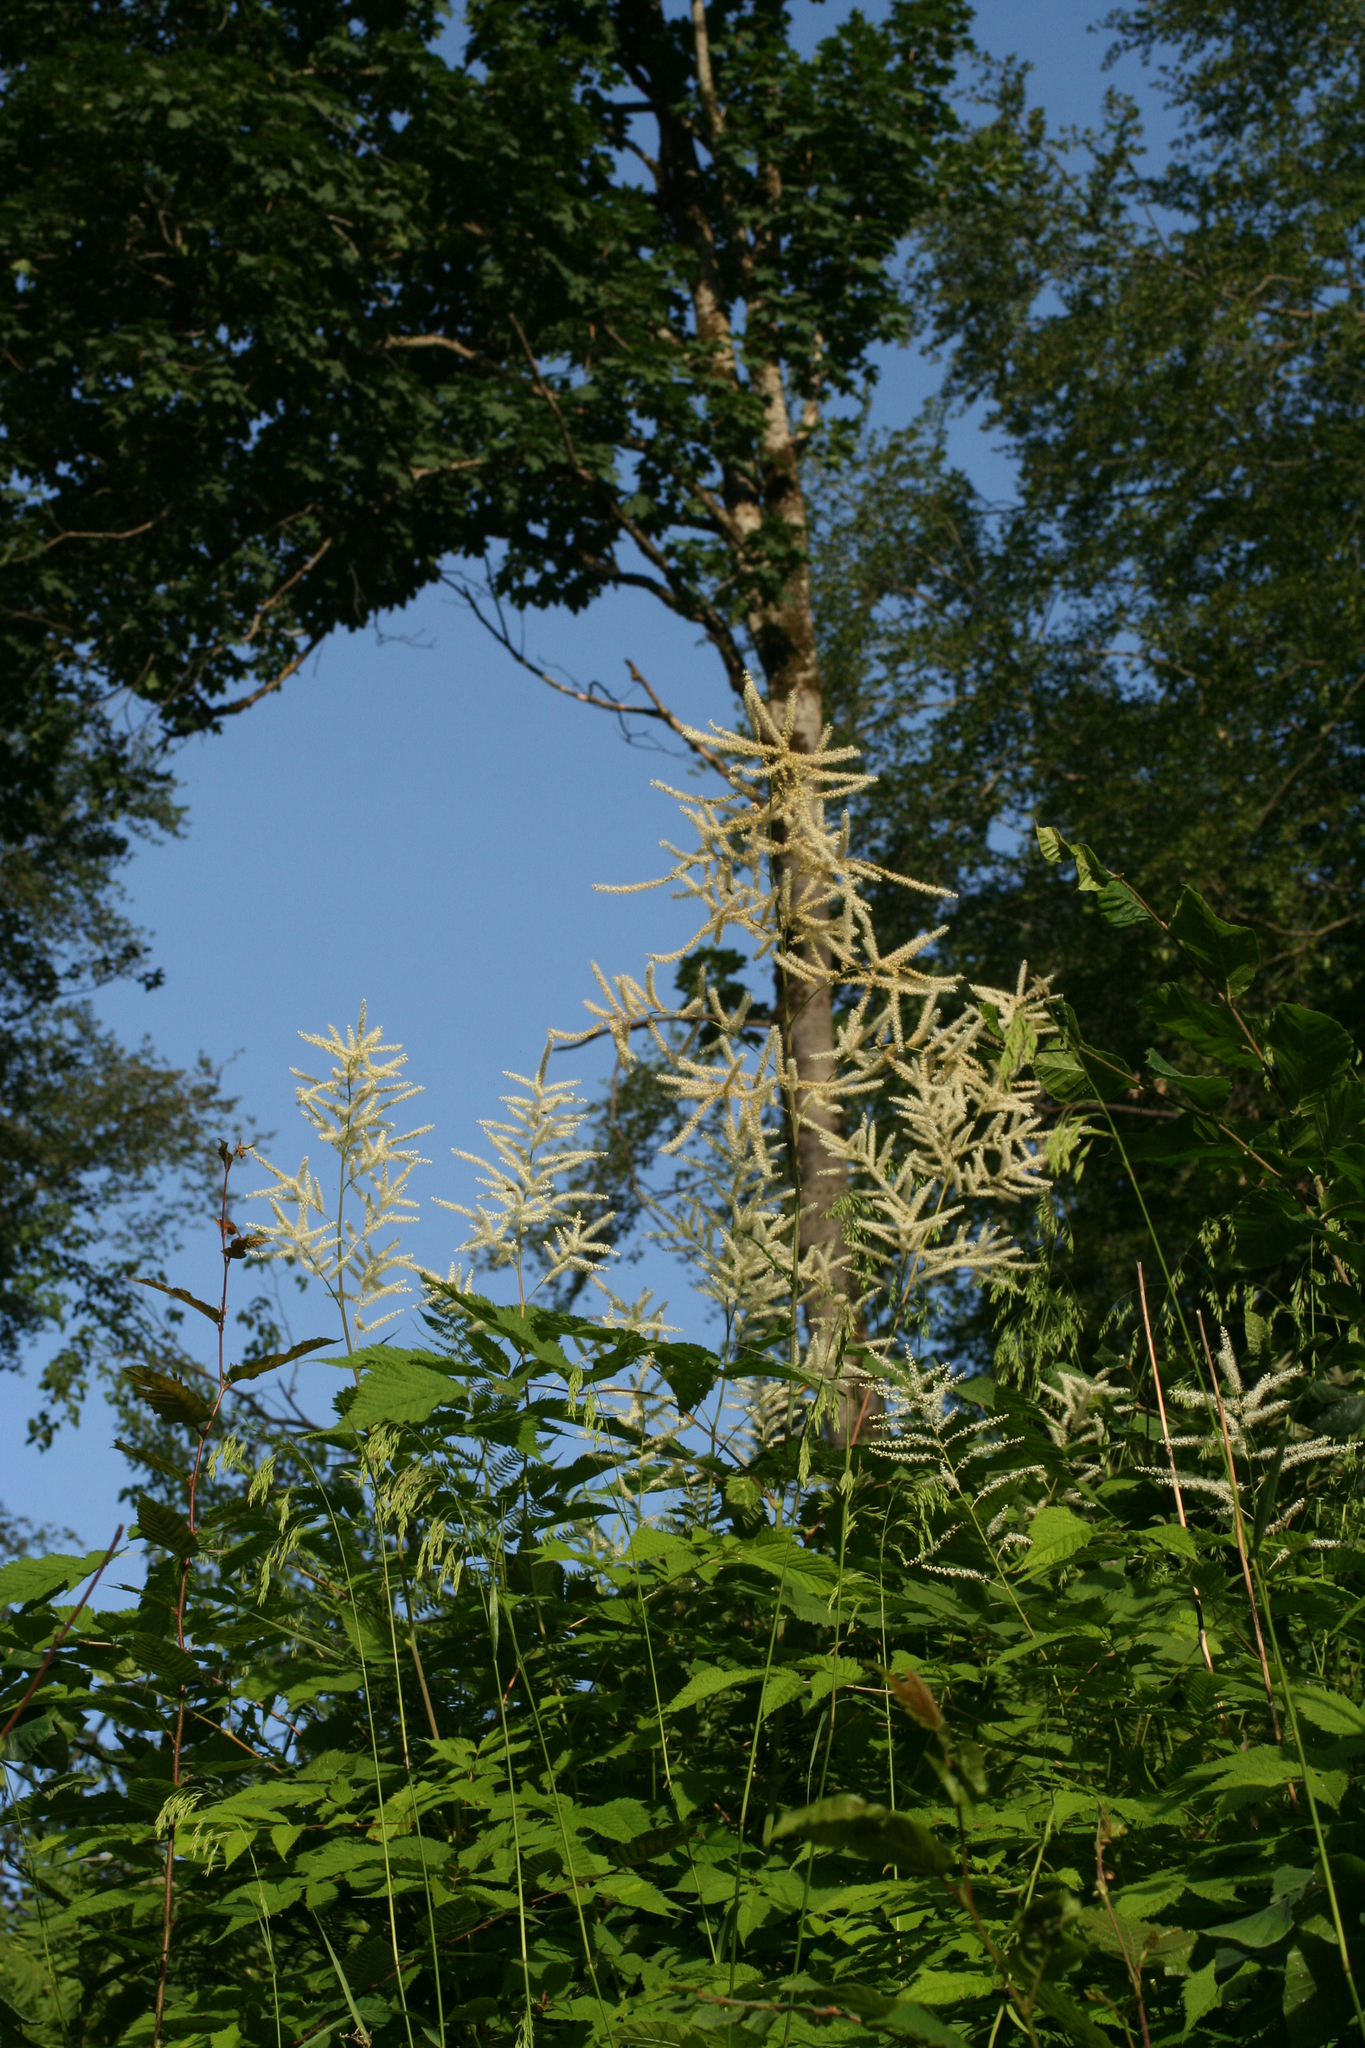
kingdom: Plantae
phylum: Tracheophyta
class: Magnoliopsida
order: Rosales
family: Rosaceae
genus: Aruncus
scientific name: Aruncus sylvester
